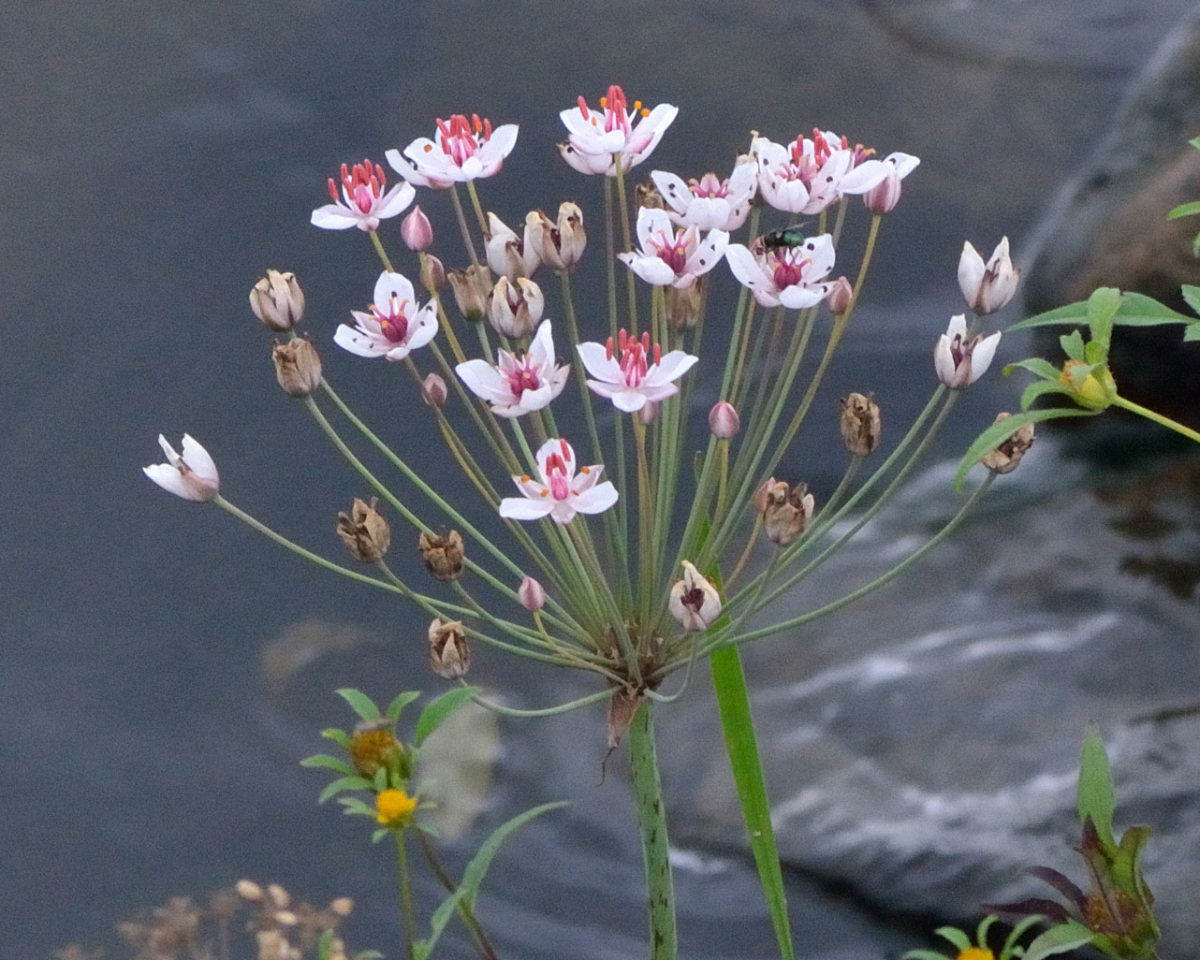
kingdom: Plantae
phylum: Tracheophyta
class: Liliopsida
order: Alismatales
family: Butomaceae
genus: Butomus
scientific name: Butomus umbellatus
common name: Flowering-rush
